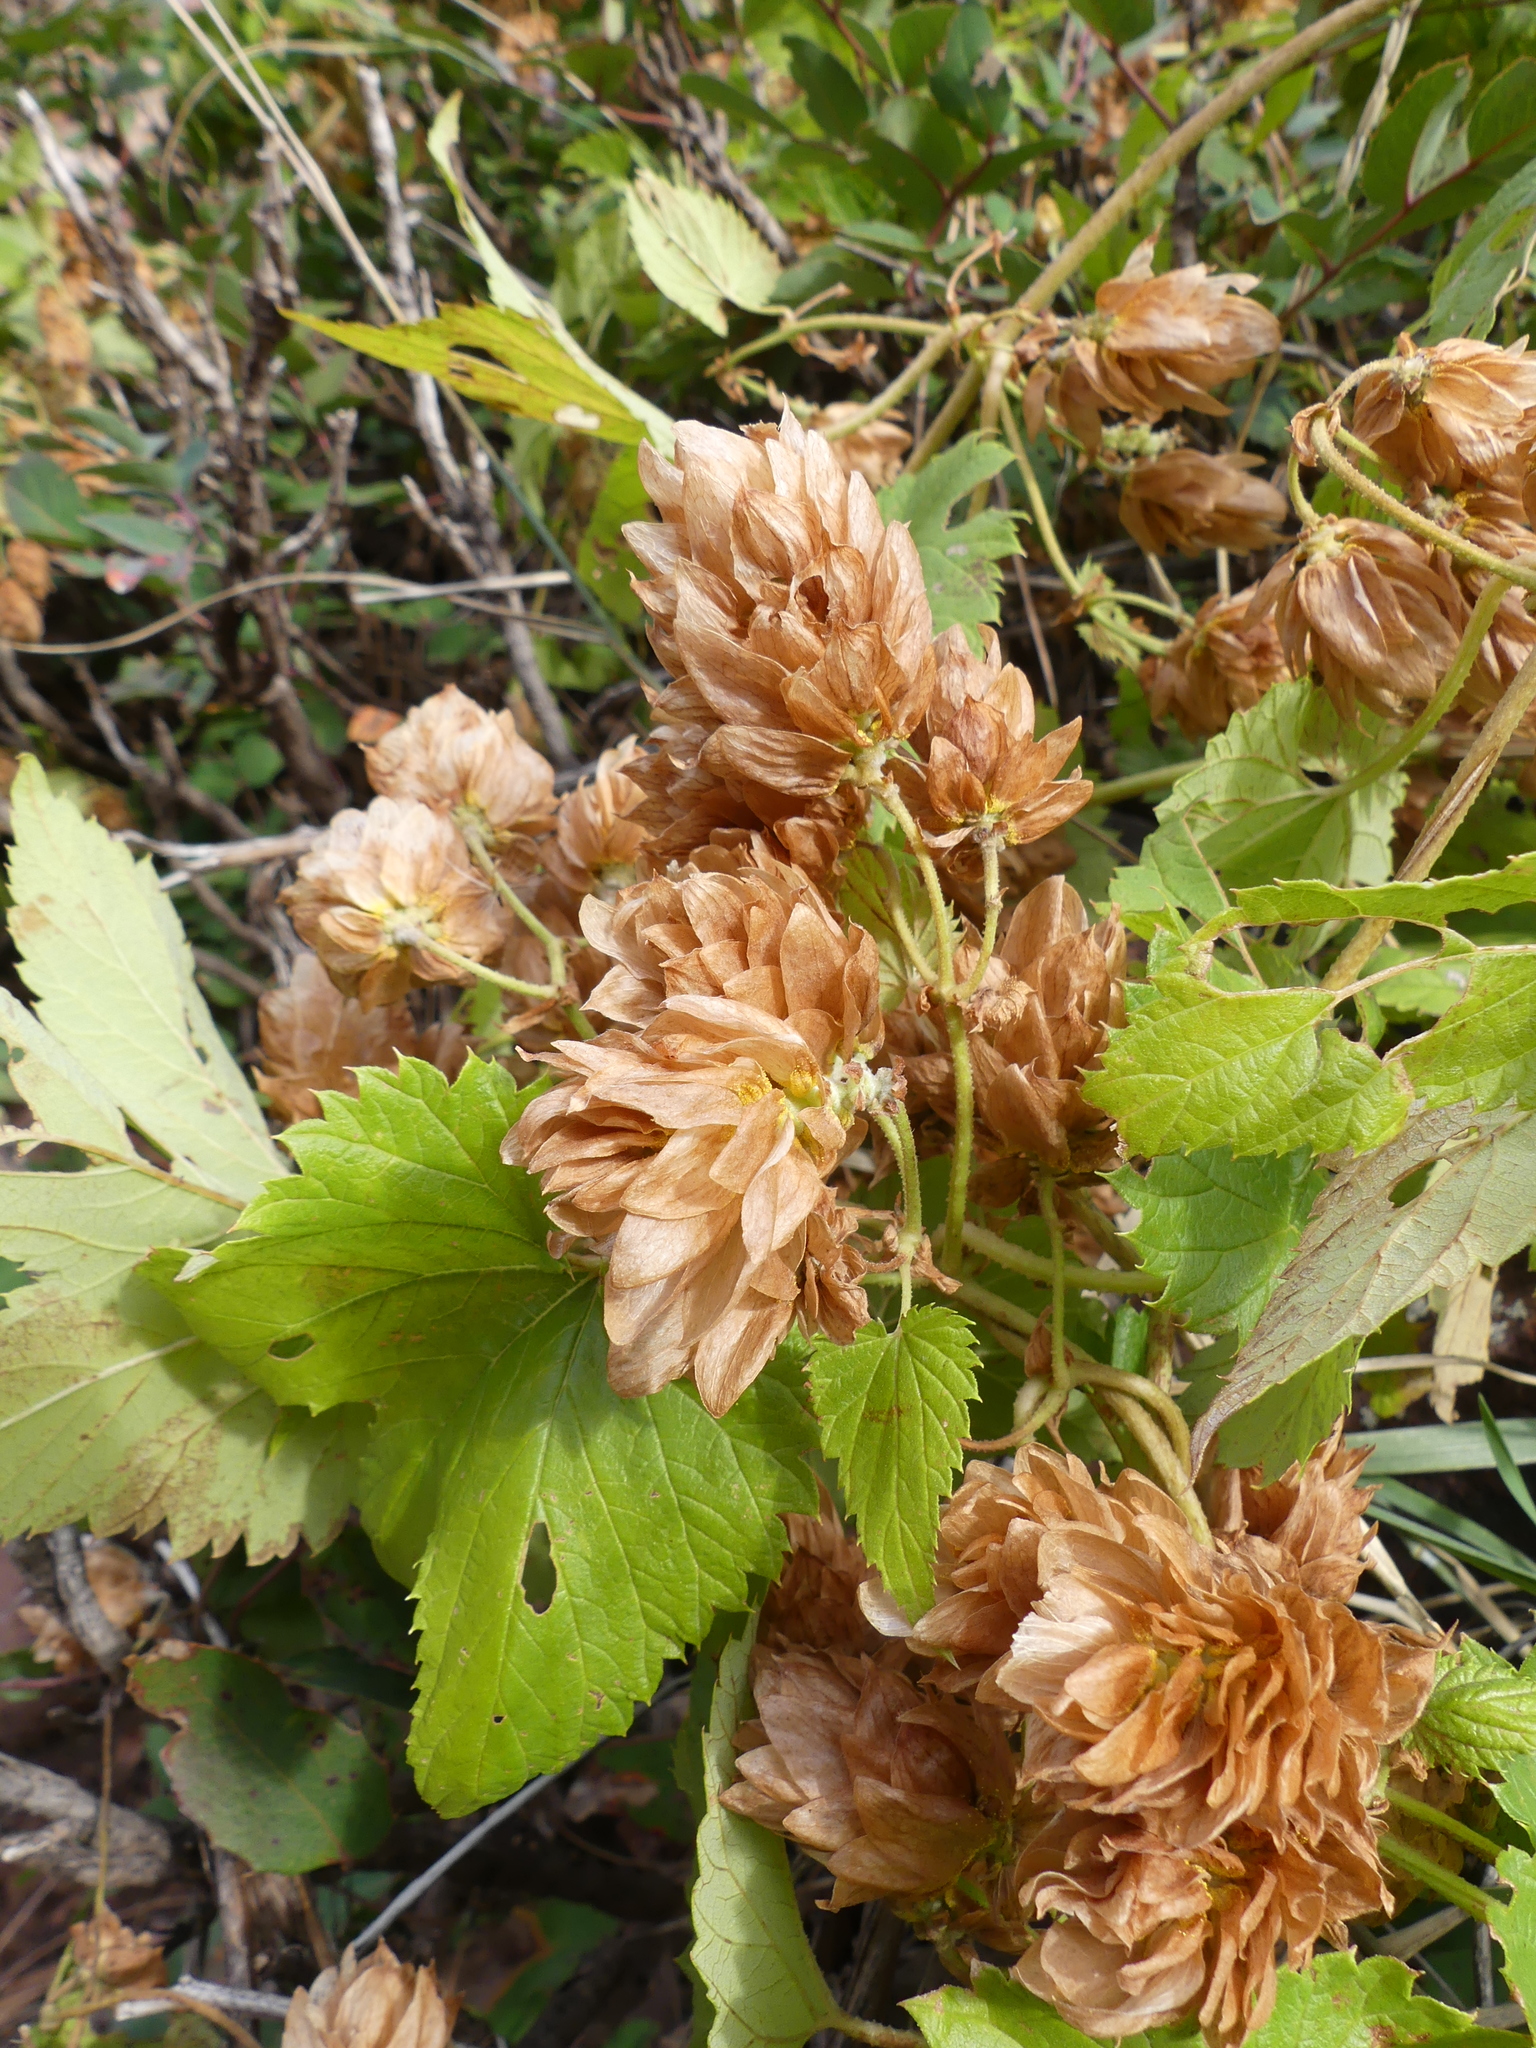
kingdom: Plantae
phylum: Tracheophyta
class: Magnoliopsida
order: Rosales
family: Cannabaceae
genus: Humulus
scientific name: Humulus lupulus
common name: Hop
